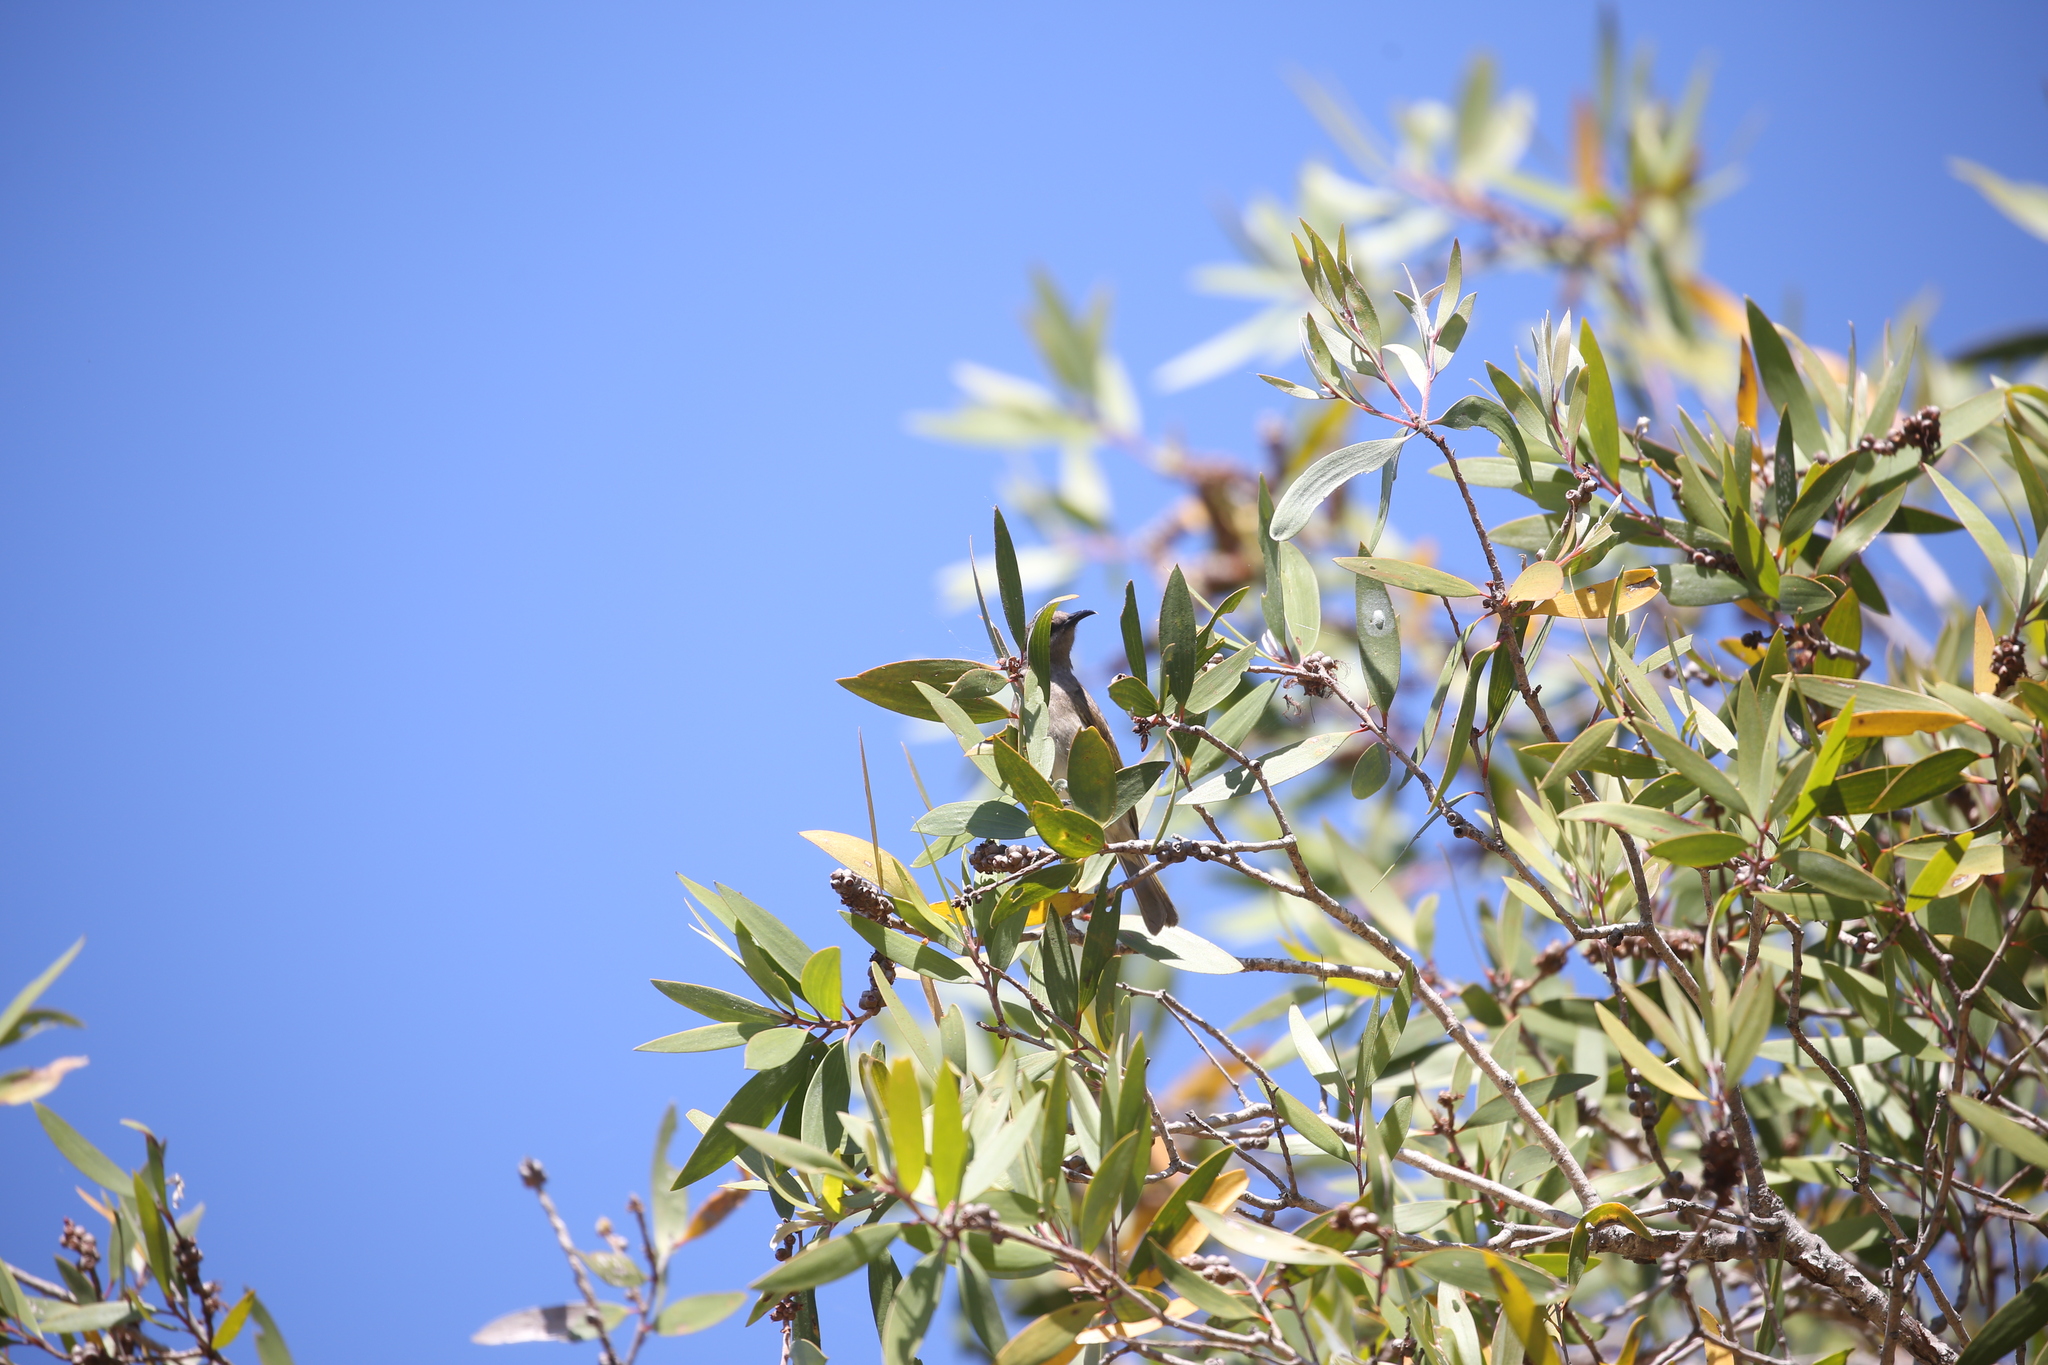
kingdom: Animalia
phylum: Chordata
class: Aves
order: Passeriformes
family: Meliphagidae
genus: Lichmera
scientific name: Lichmera indistincta
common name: Brown honeyeater
